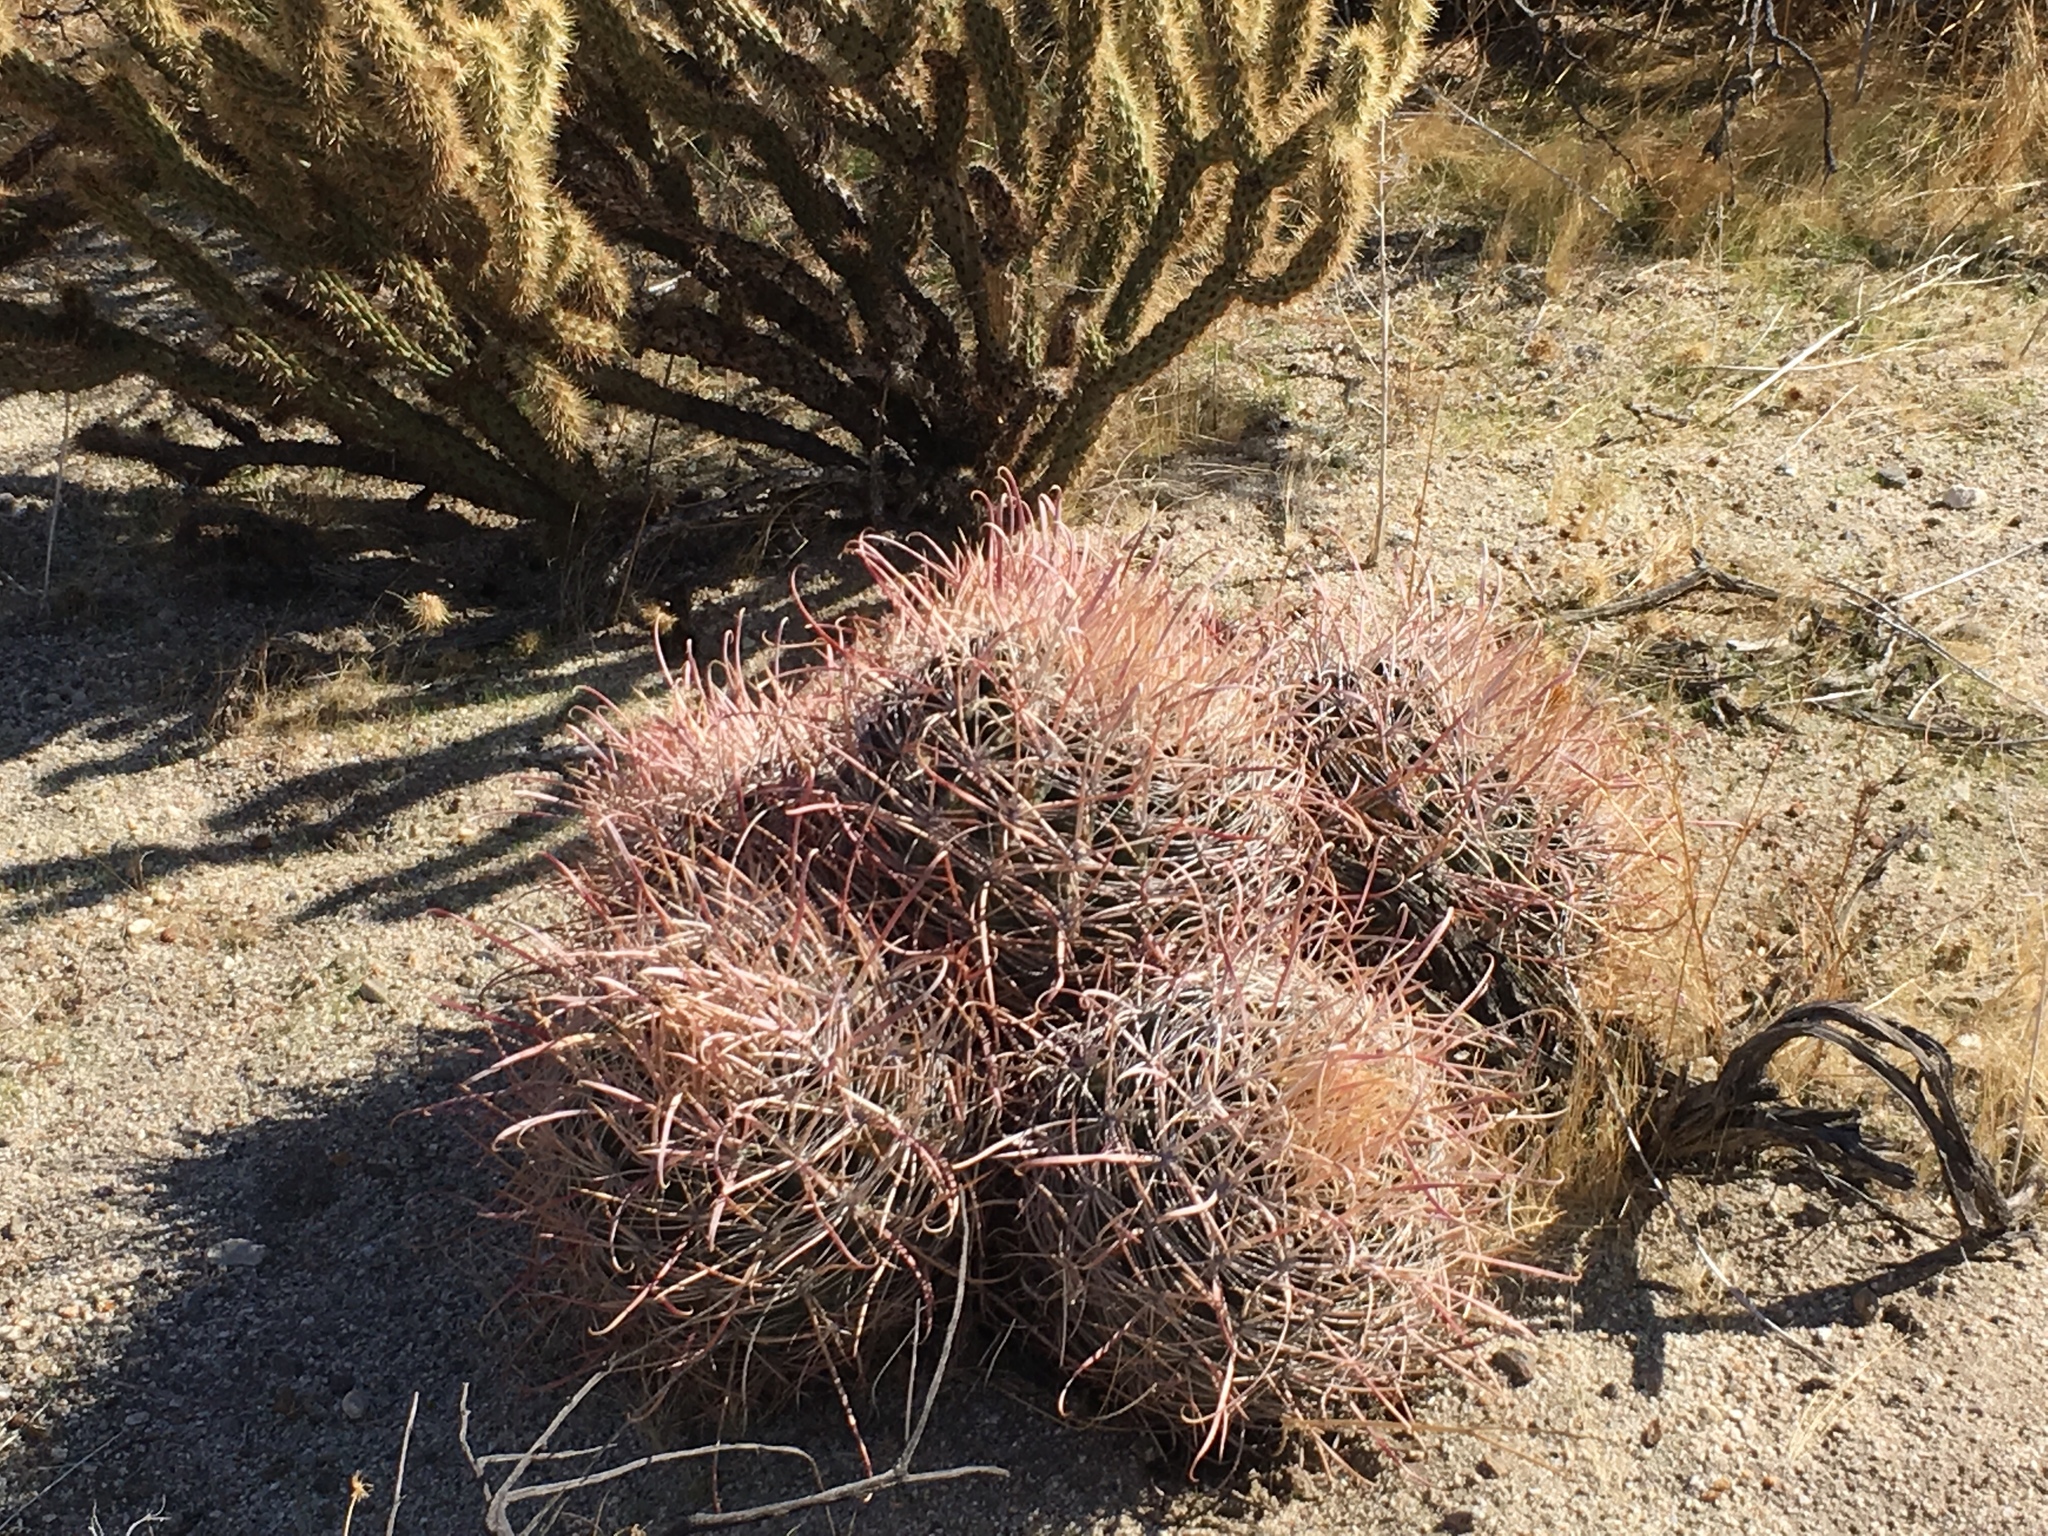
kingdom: Plantae
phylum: Tracheophyta
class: Magnoliopsida
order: Caryophyllales
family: Cactaceae
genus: Ferocactus
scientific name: Ferocactus cylindraceus
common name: California barrel cactus
